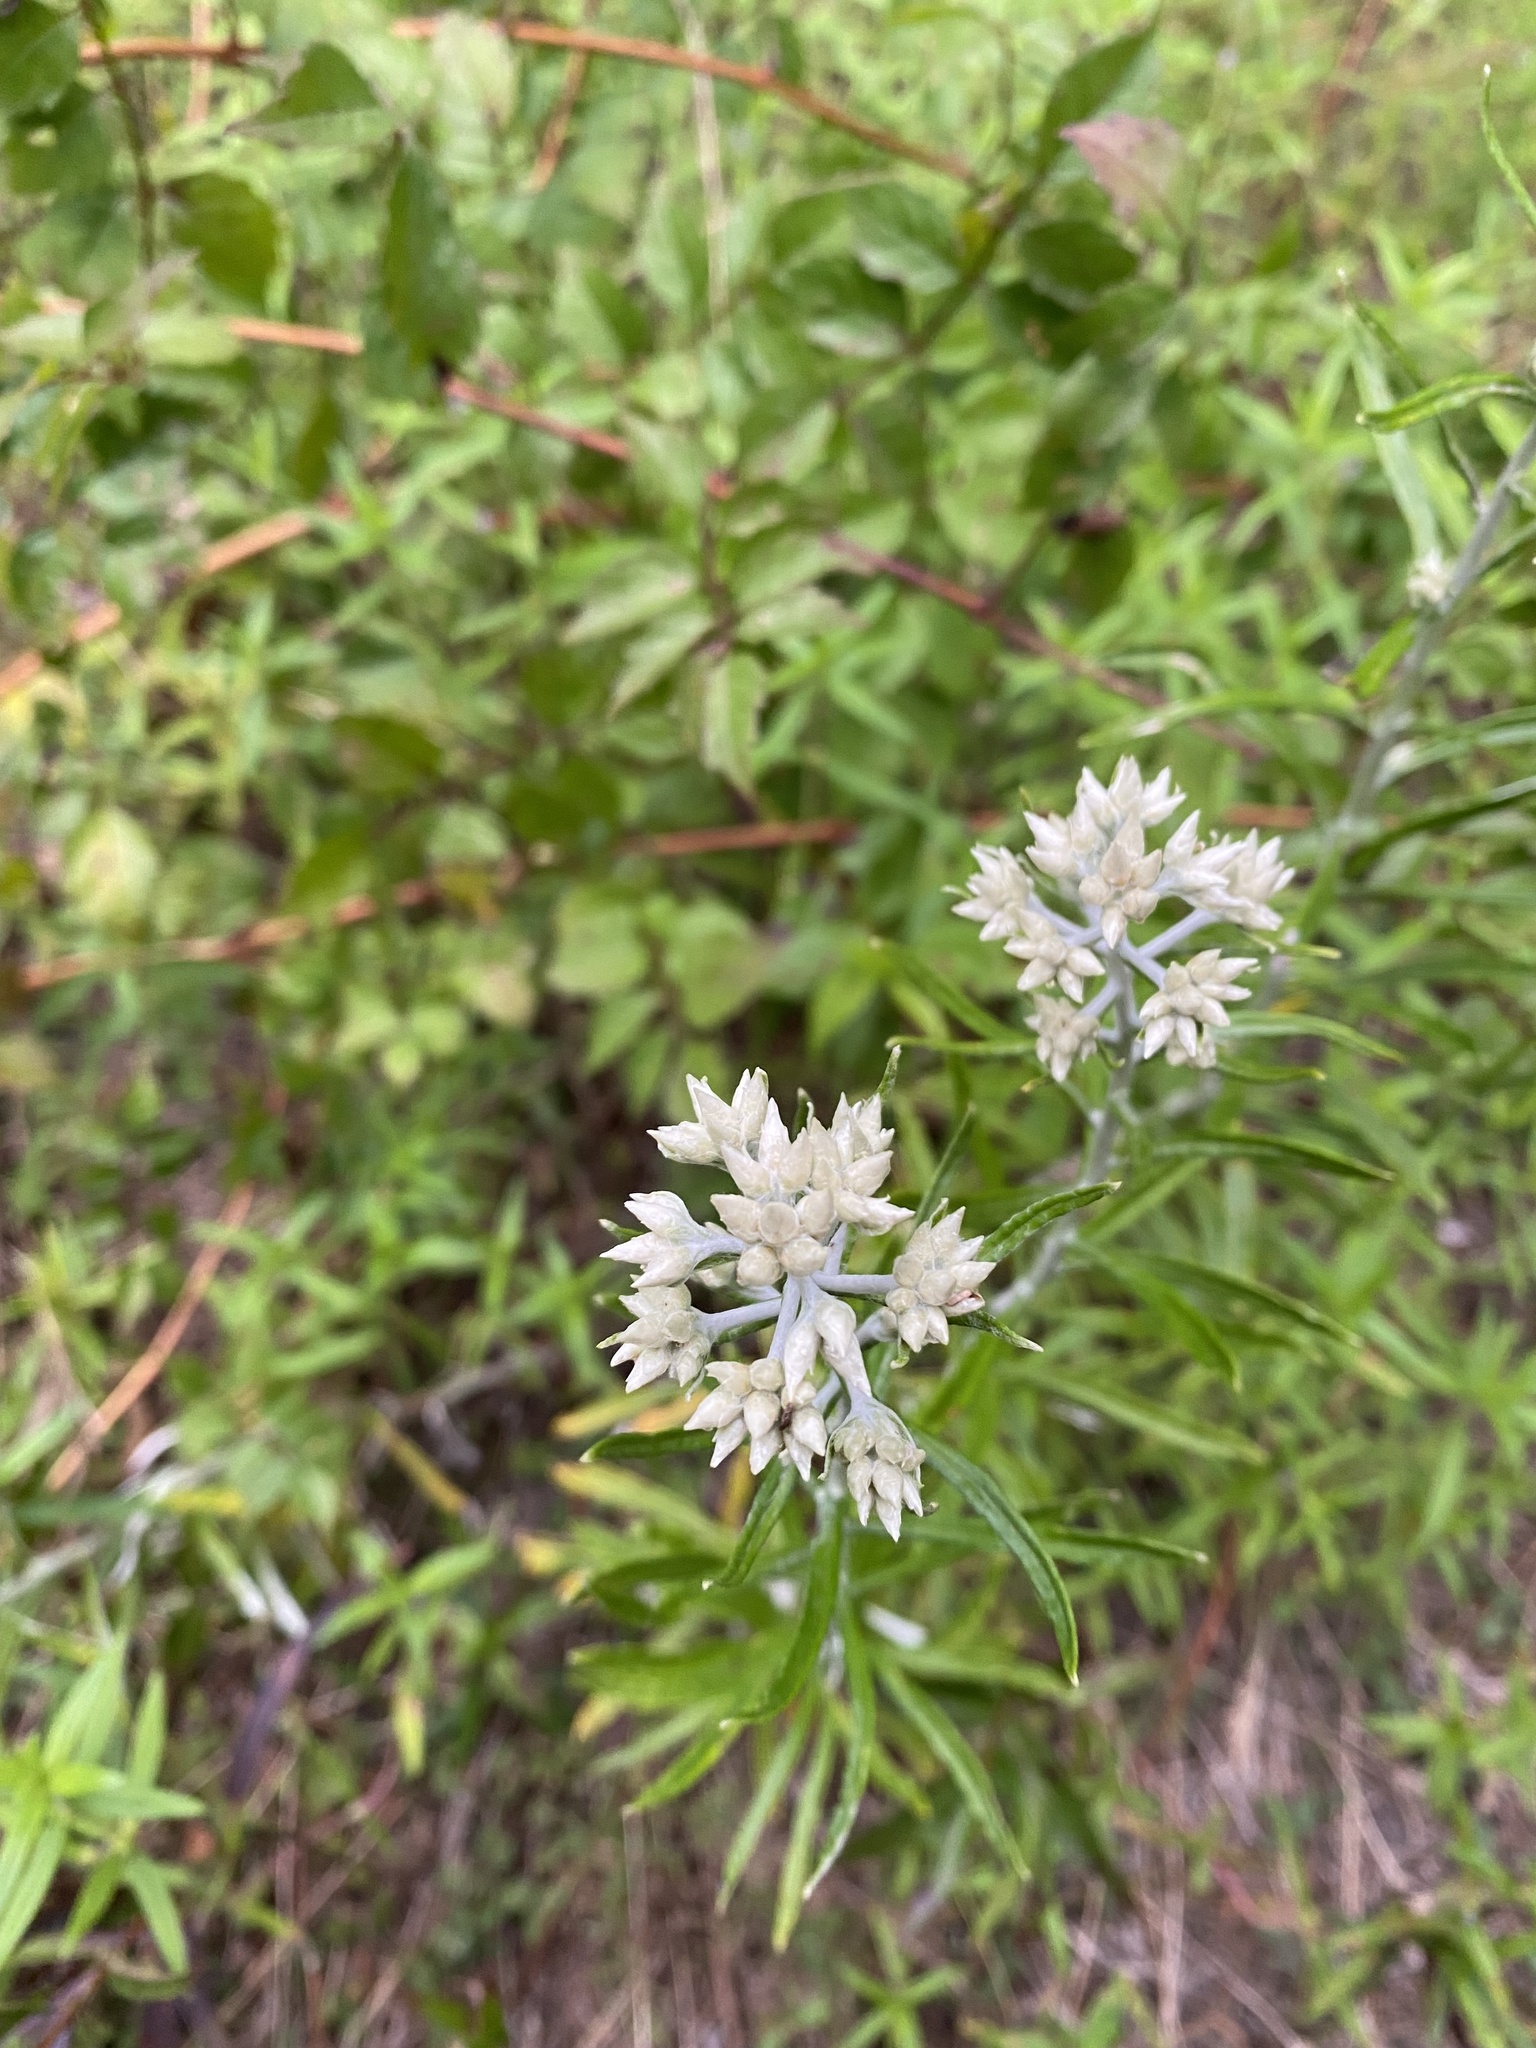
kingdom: Plantae
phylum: Tracheophyta
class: Magnoliopsida
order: Asterales
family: Asteraceae
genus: Pseudognaphalium
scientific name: Pseudognaphalium obtusifolium
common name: Eastern rabbit-tobacco
